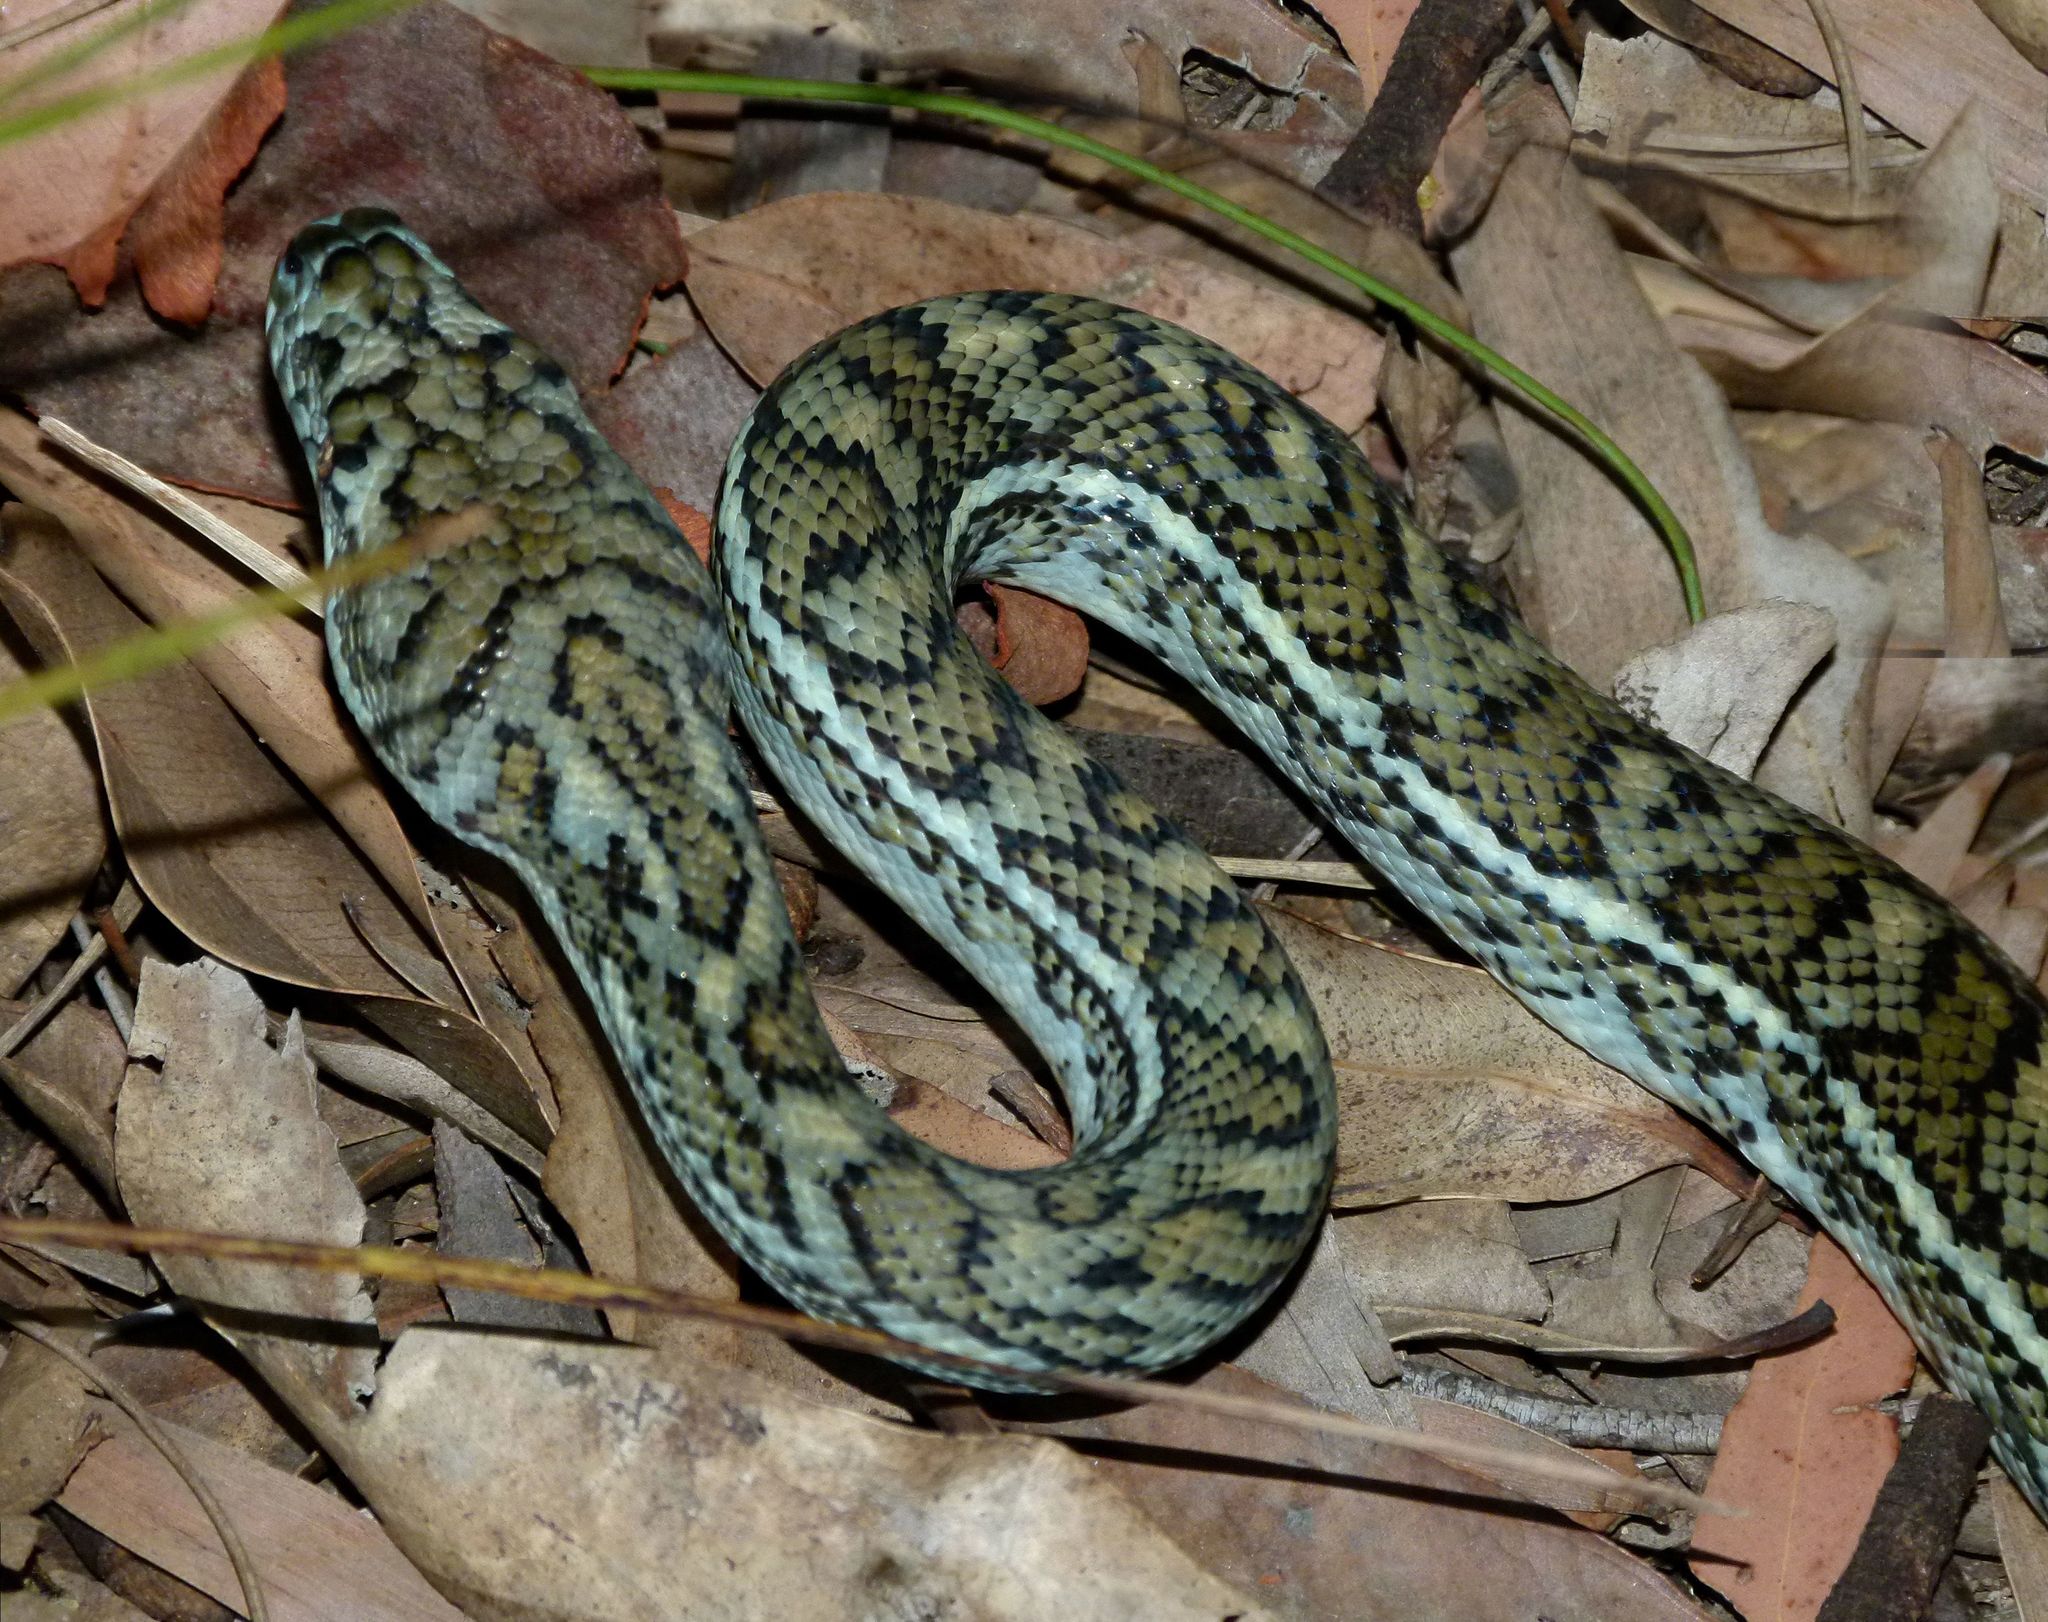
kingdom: Animalia
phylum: Chordata
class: Squamata
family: Pythonidae
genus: Morelia
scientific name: Morelia spilota
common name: Carpet python
